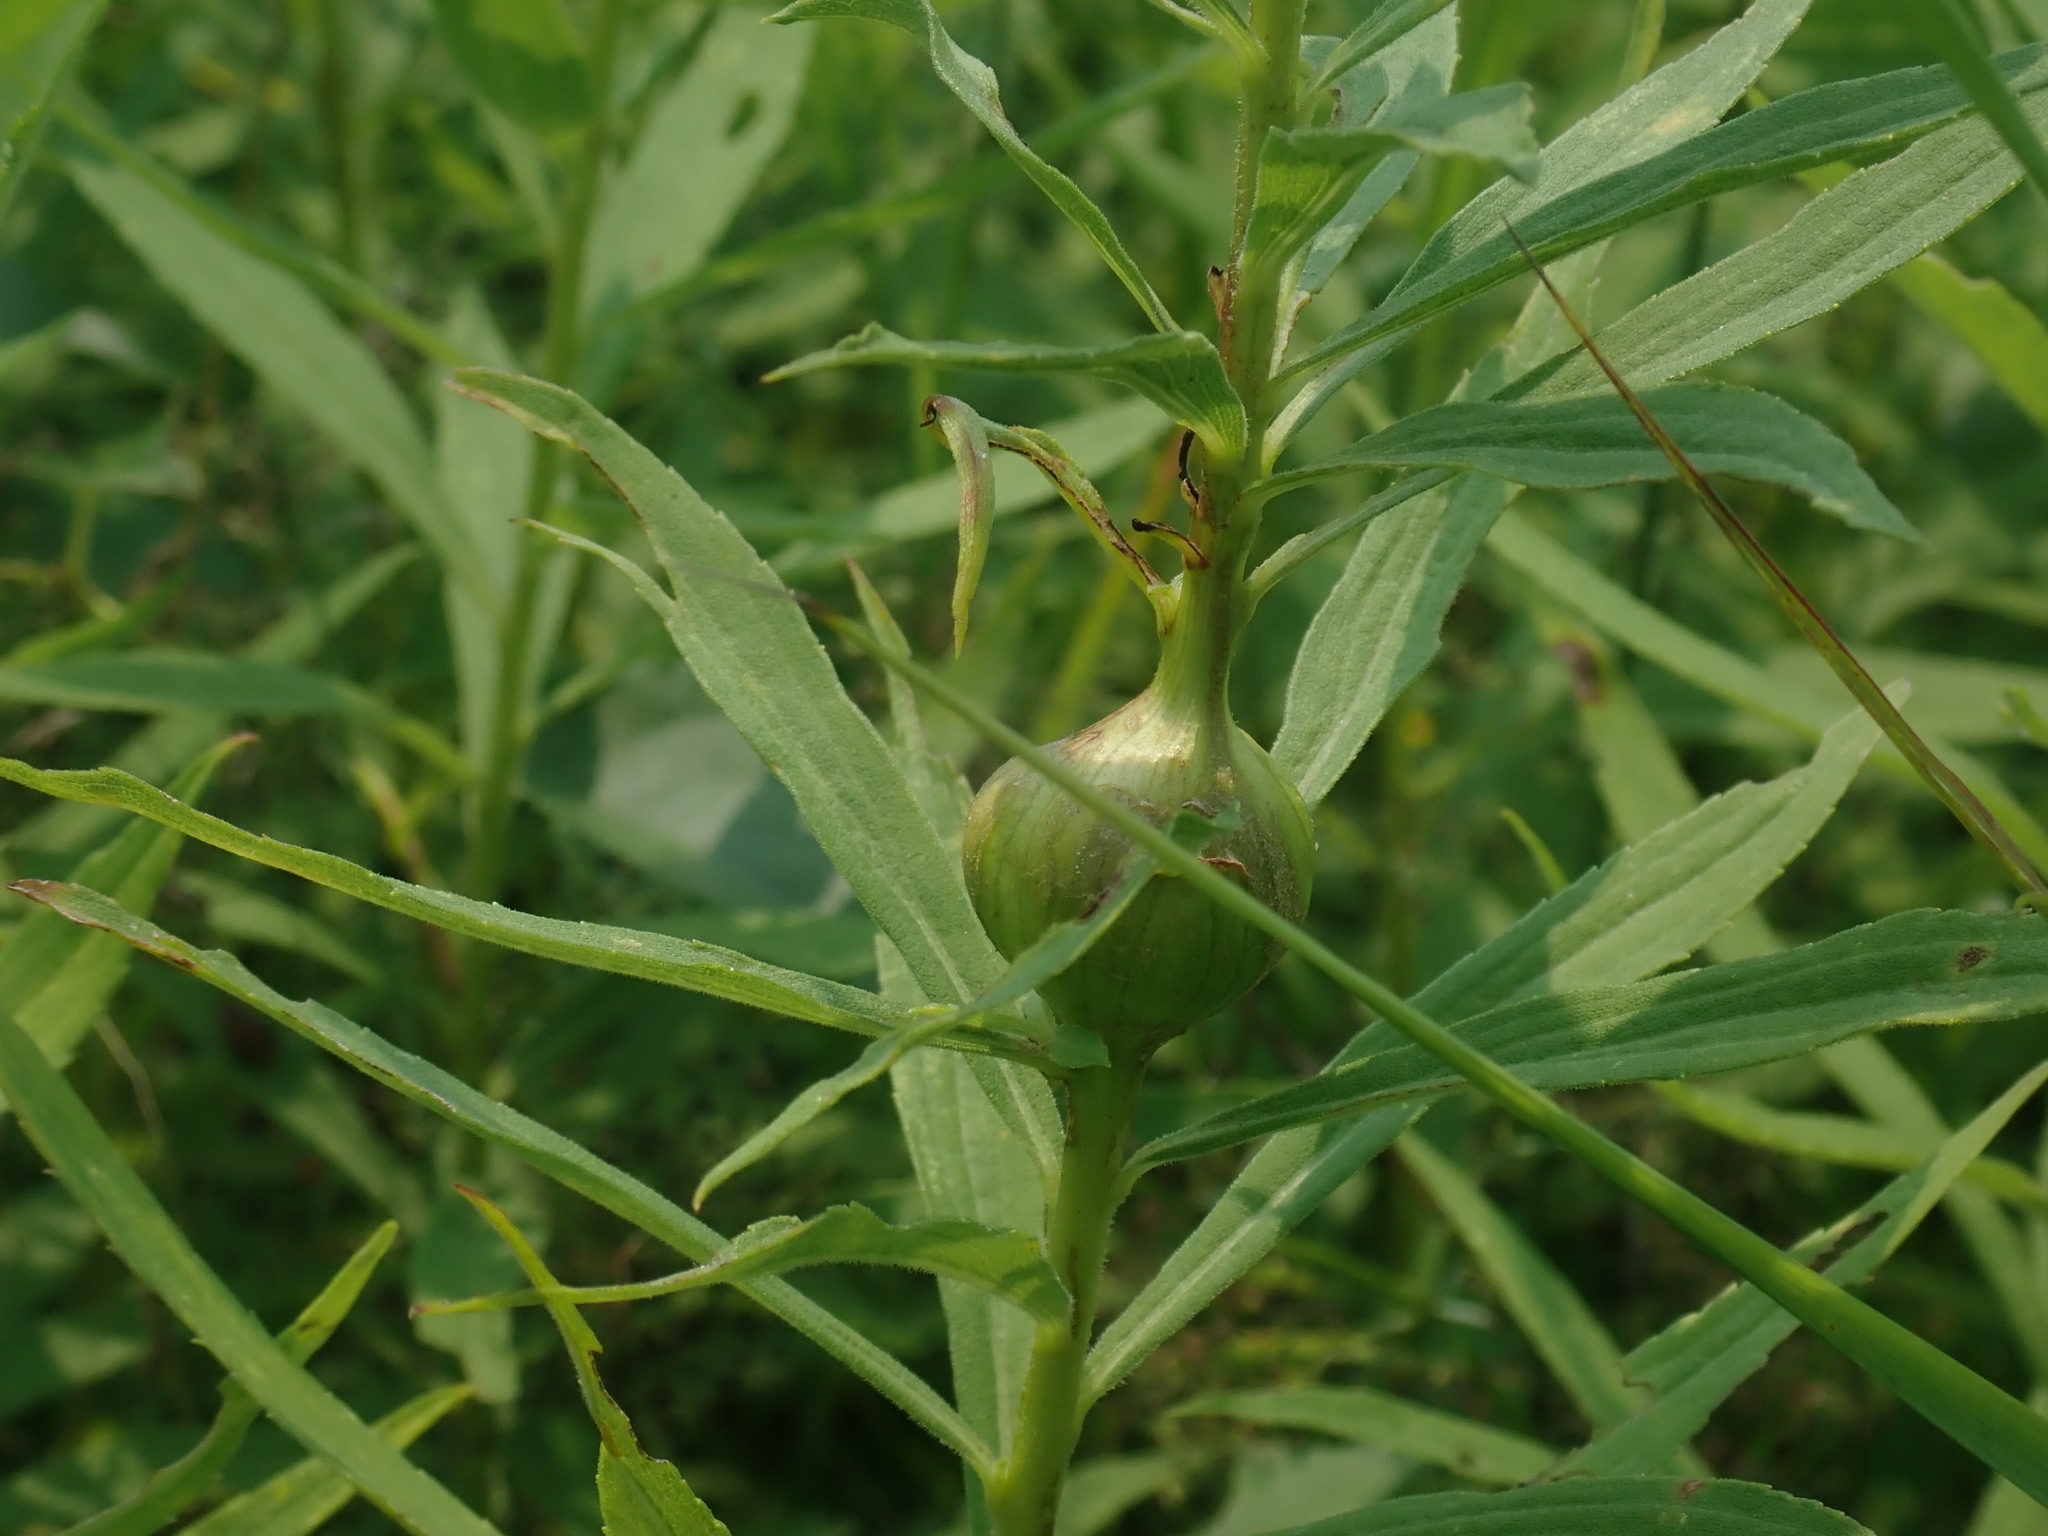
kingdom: Animalia
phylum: Arthropoda
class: Insecta
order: Diptera
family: Tephritidae
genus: Eurosta
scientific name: Eurosta solidaginis
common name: Goldenrod gall fly
